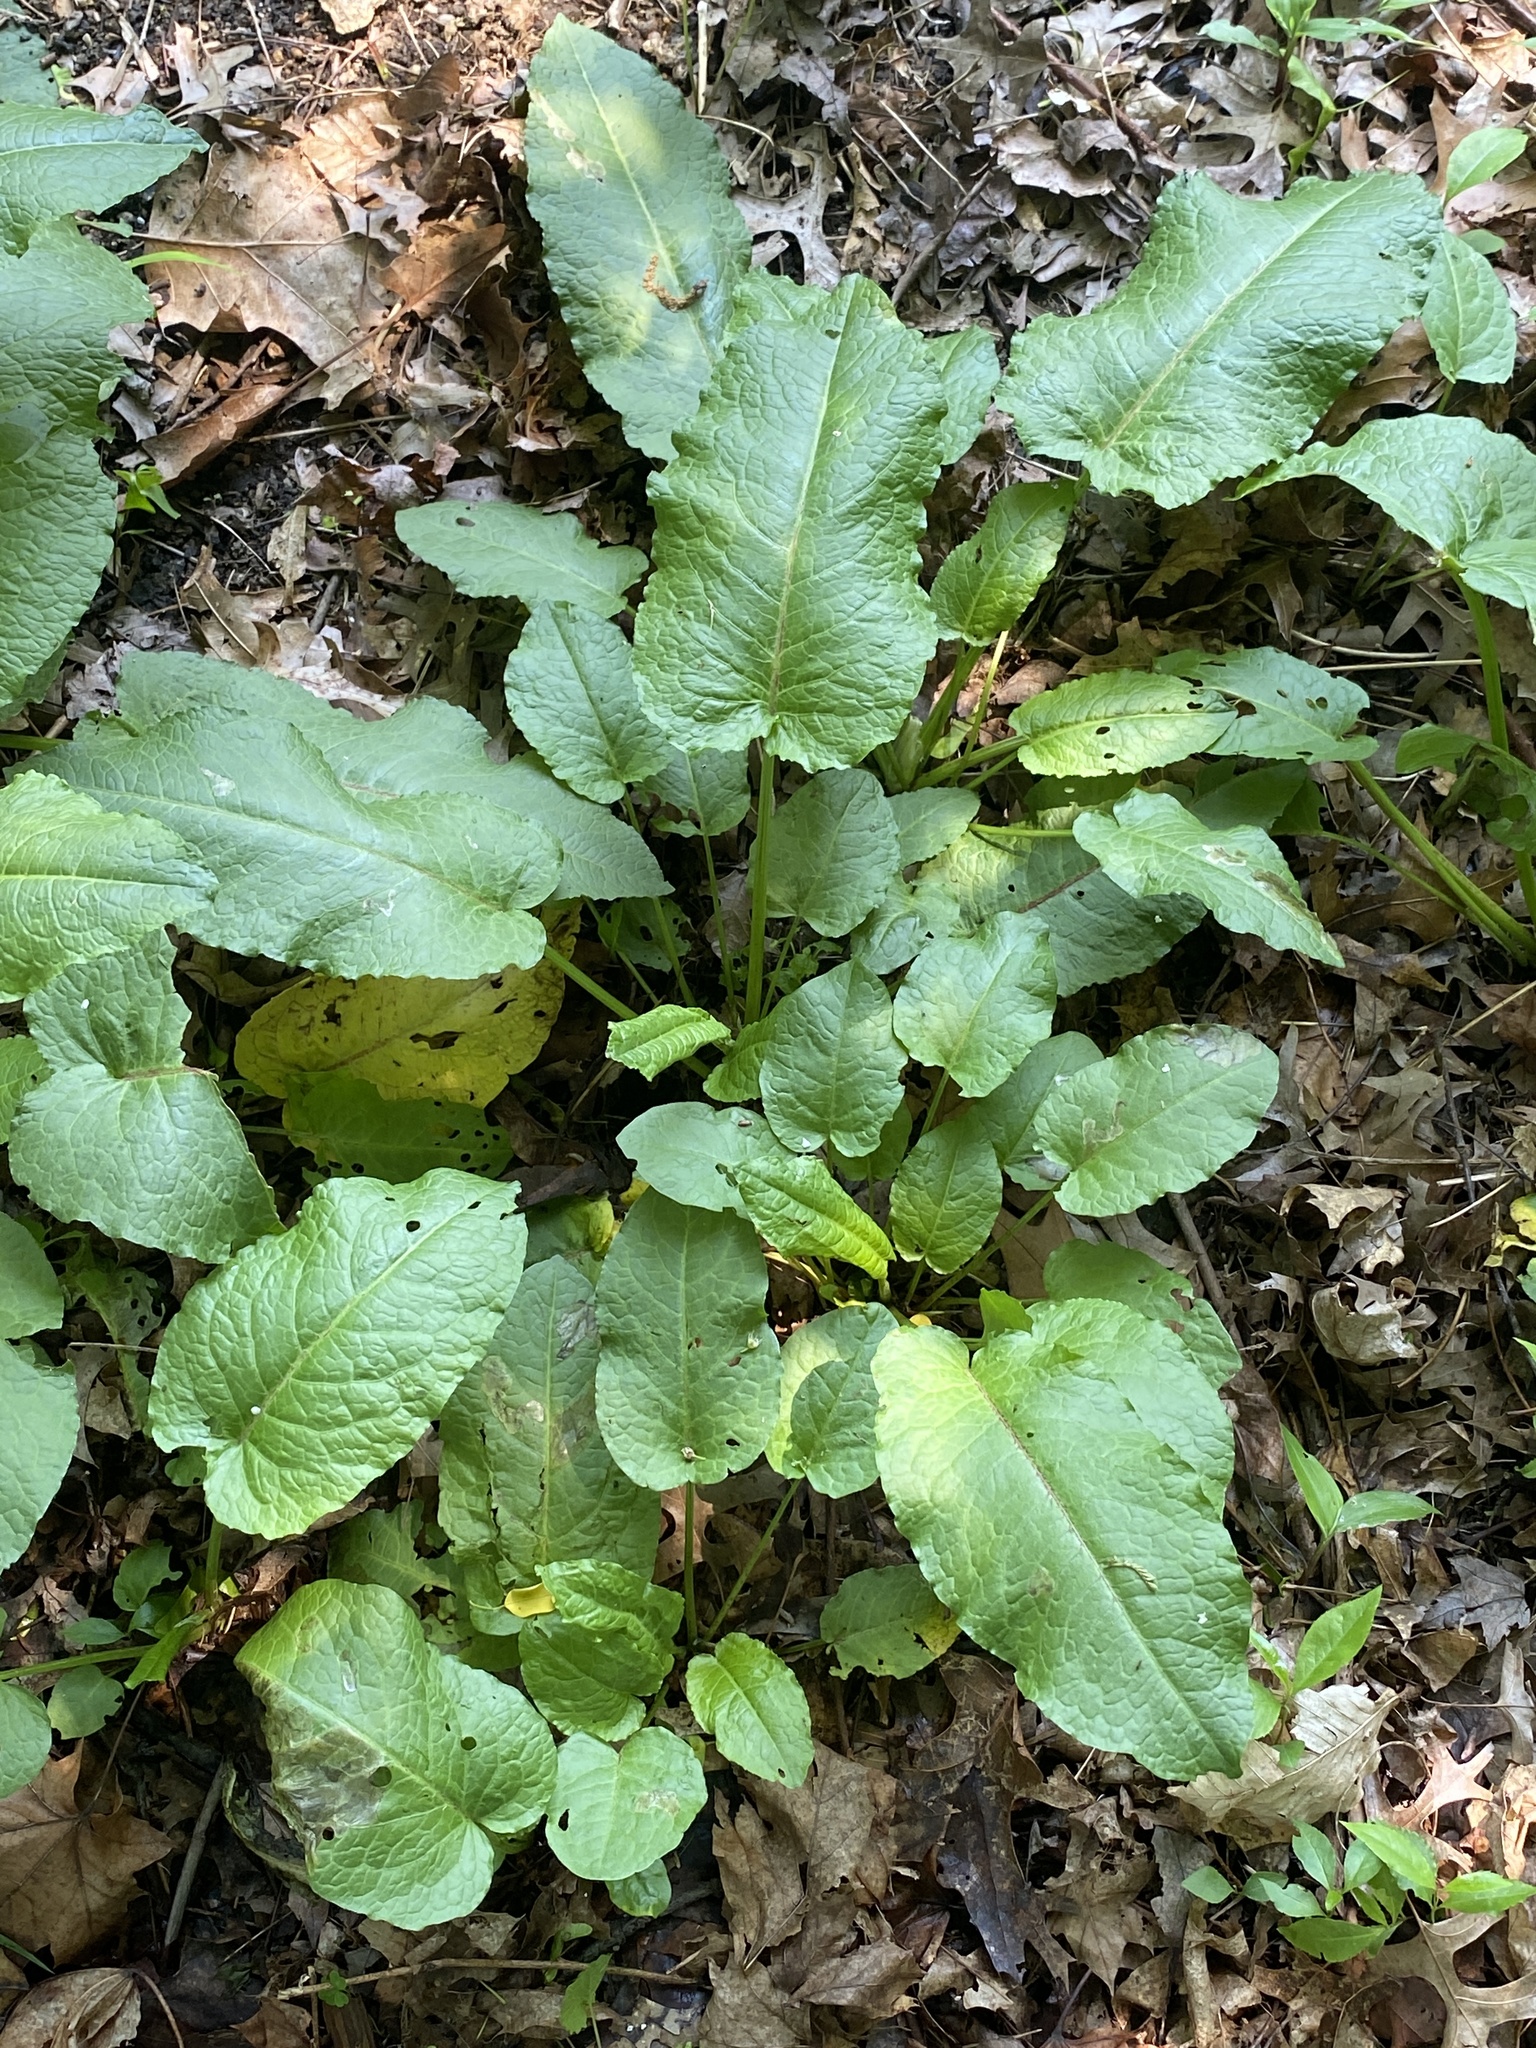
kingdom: Plantae
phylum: Tracheophyta
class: Magnoliopsida
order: Caryophyllales
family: Polygonaceae
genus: Rumex
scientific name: Rumex obtusifolius
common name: Bitter dock
